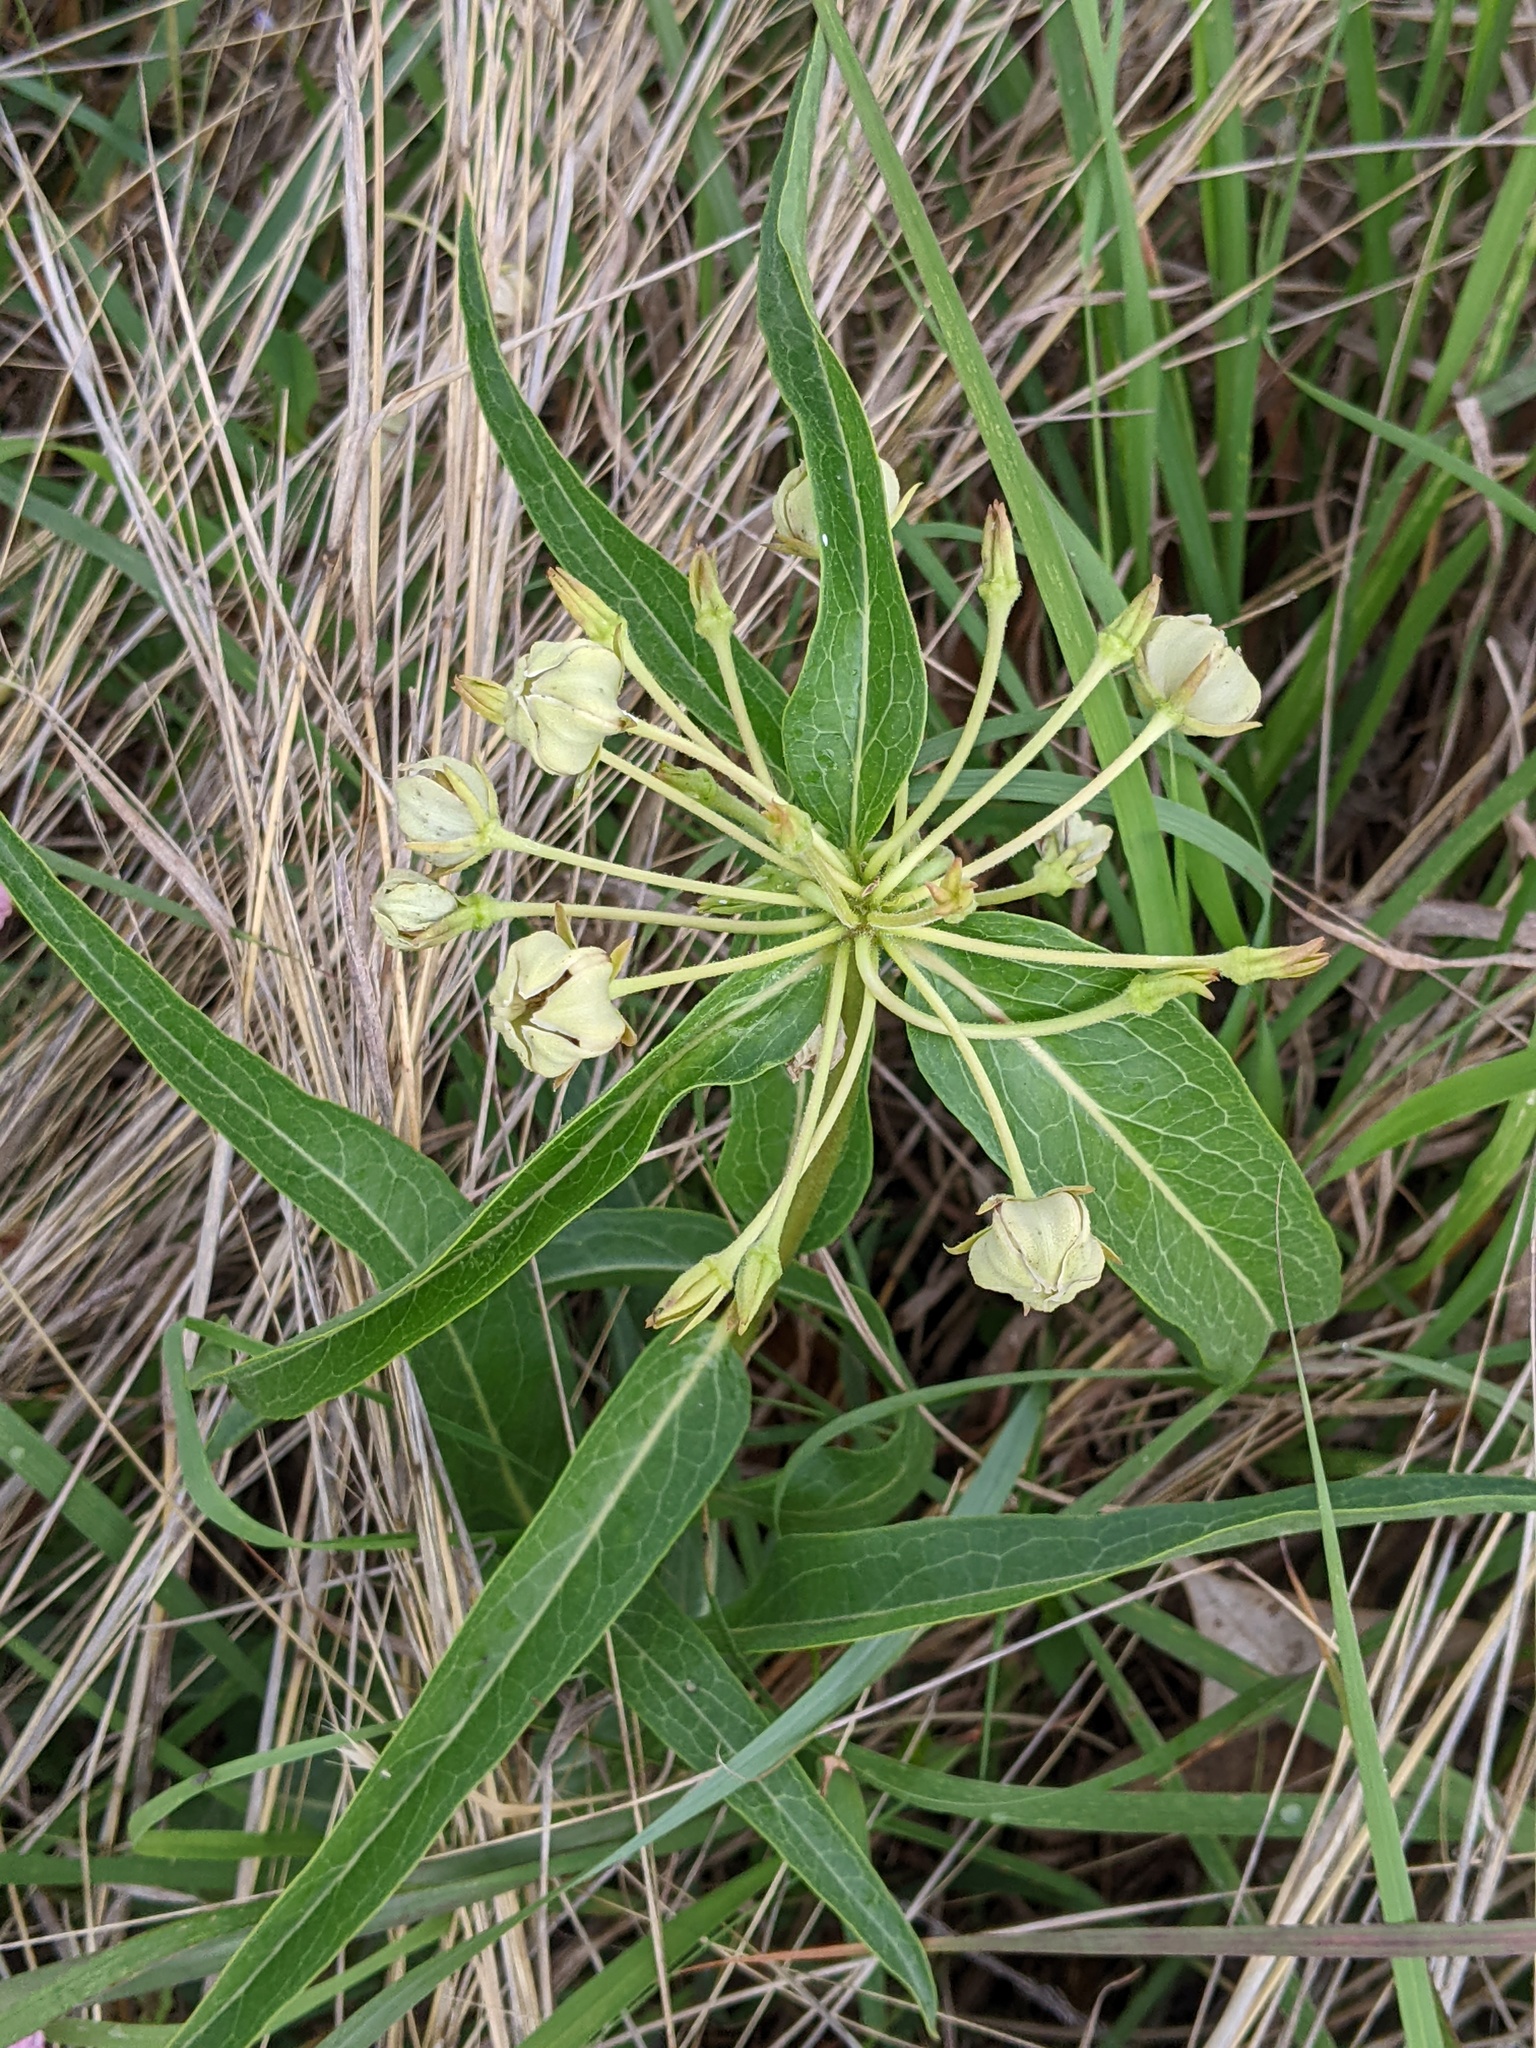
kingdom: Plantae
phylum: Tracheophyta
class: Magnoliopsida
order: Gentianales
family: Apocynaceae
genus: Asclepias
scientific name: Asclepias asperula
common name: Antelope horns
